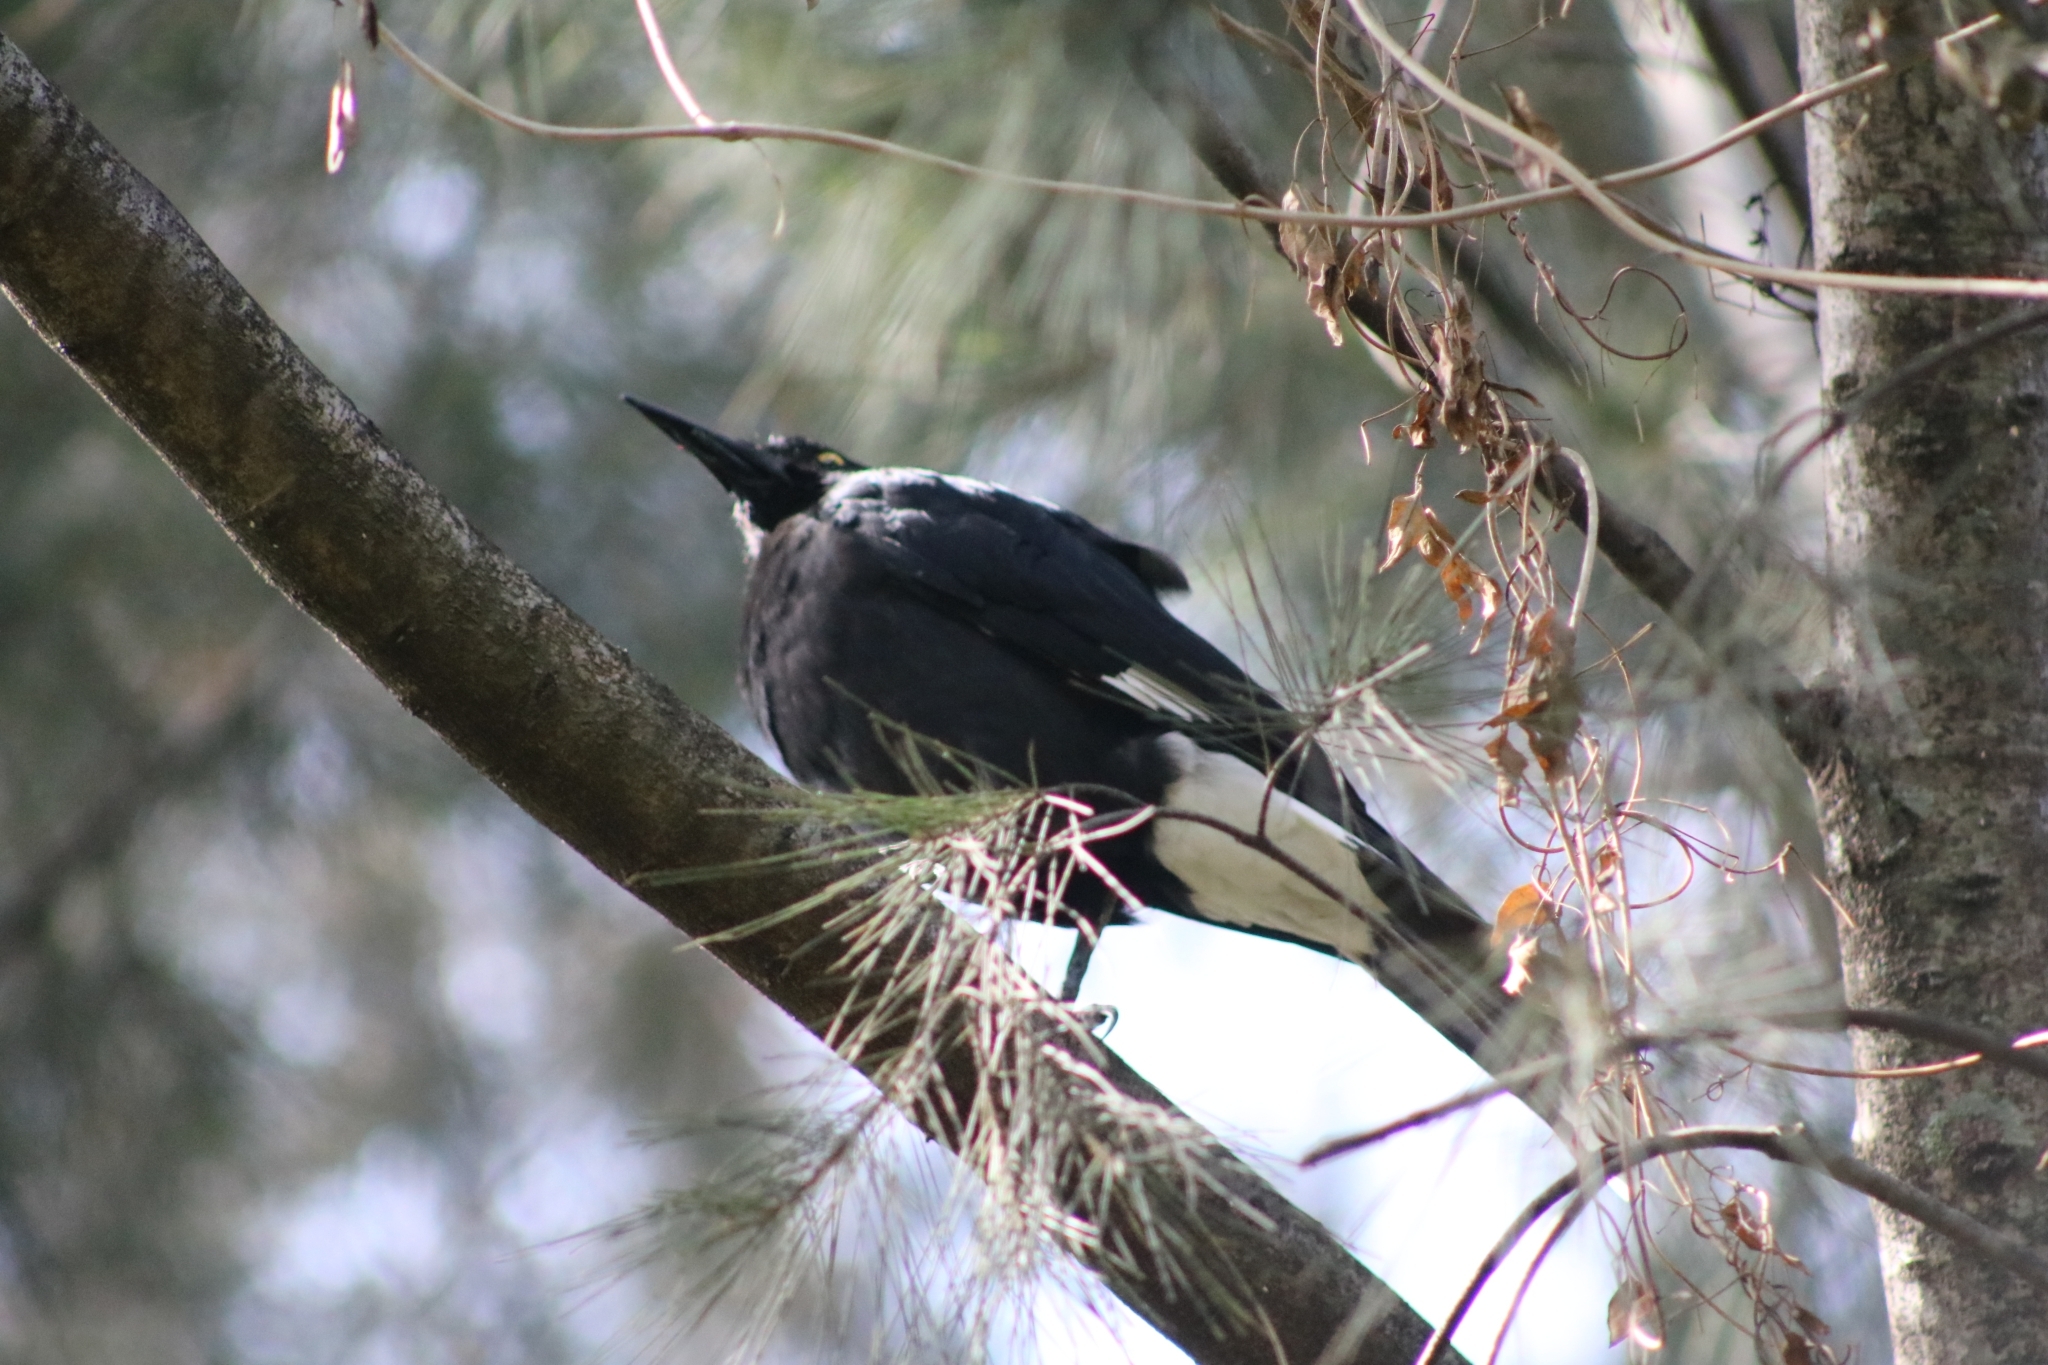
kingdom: Animalia
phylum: Chordata
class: Aves
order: Passeriformes
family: Cracticidae
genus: Strepera
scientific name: Strepera graculina
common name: Pied currawong
